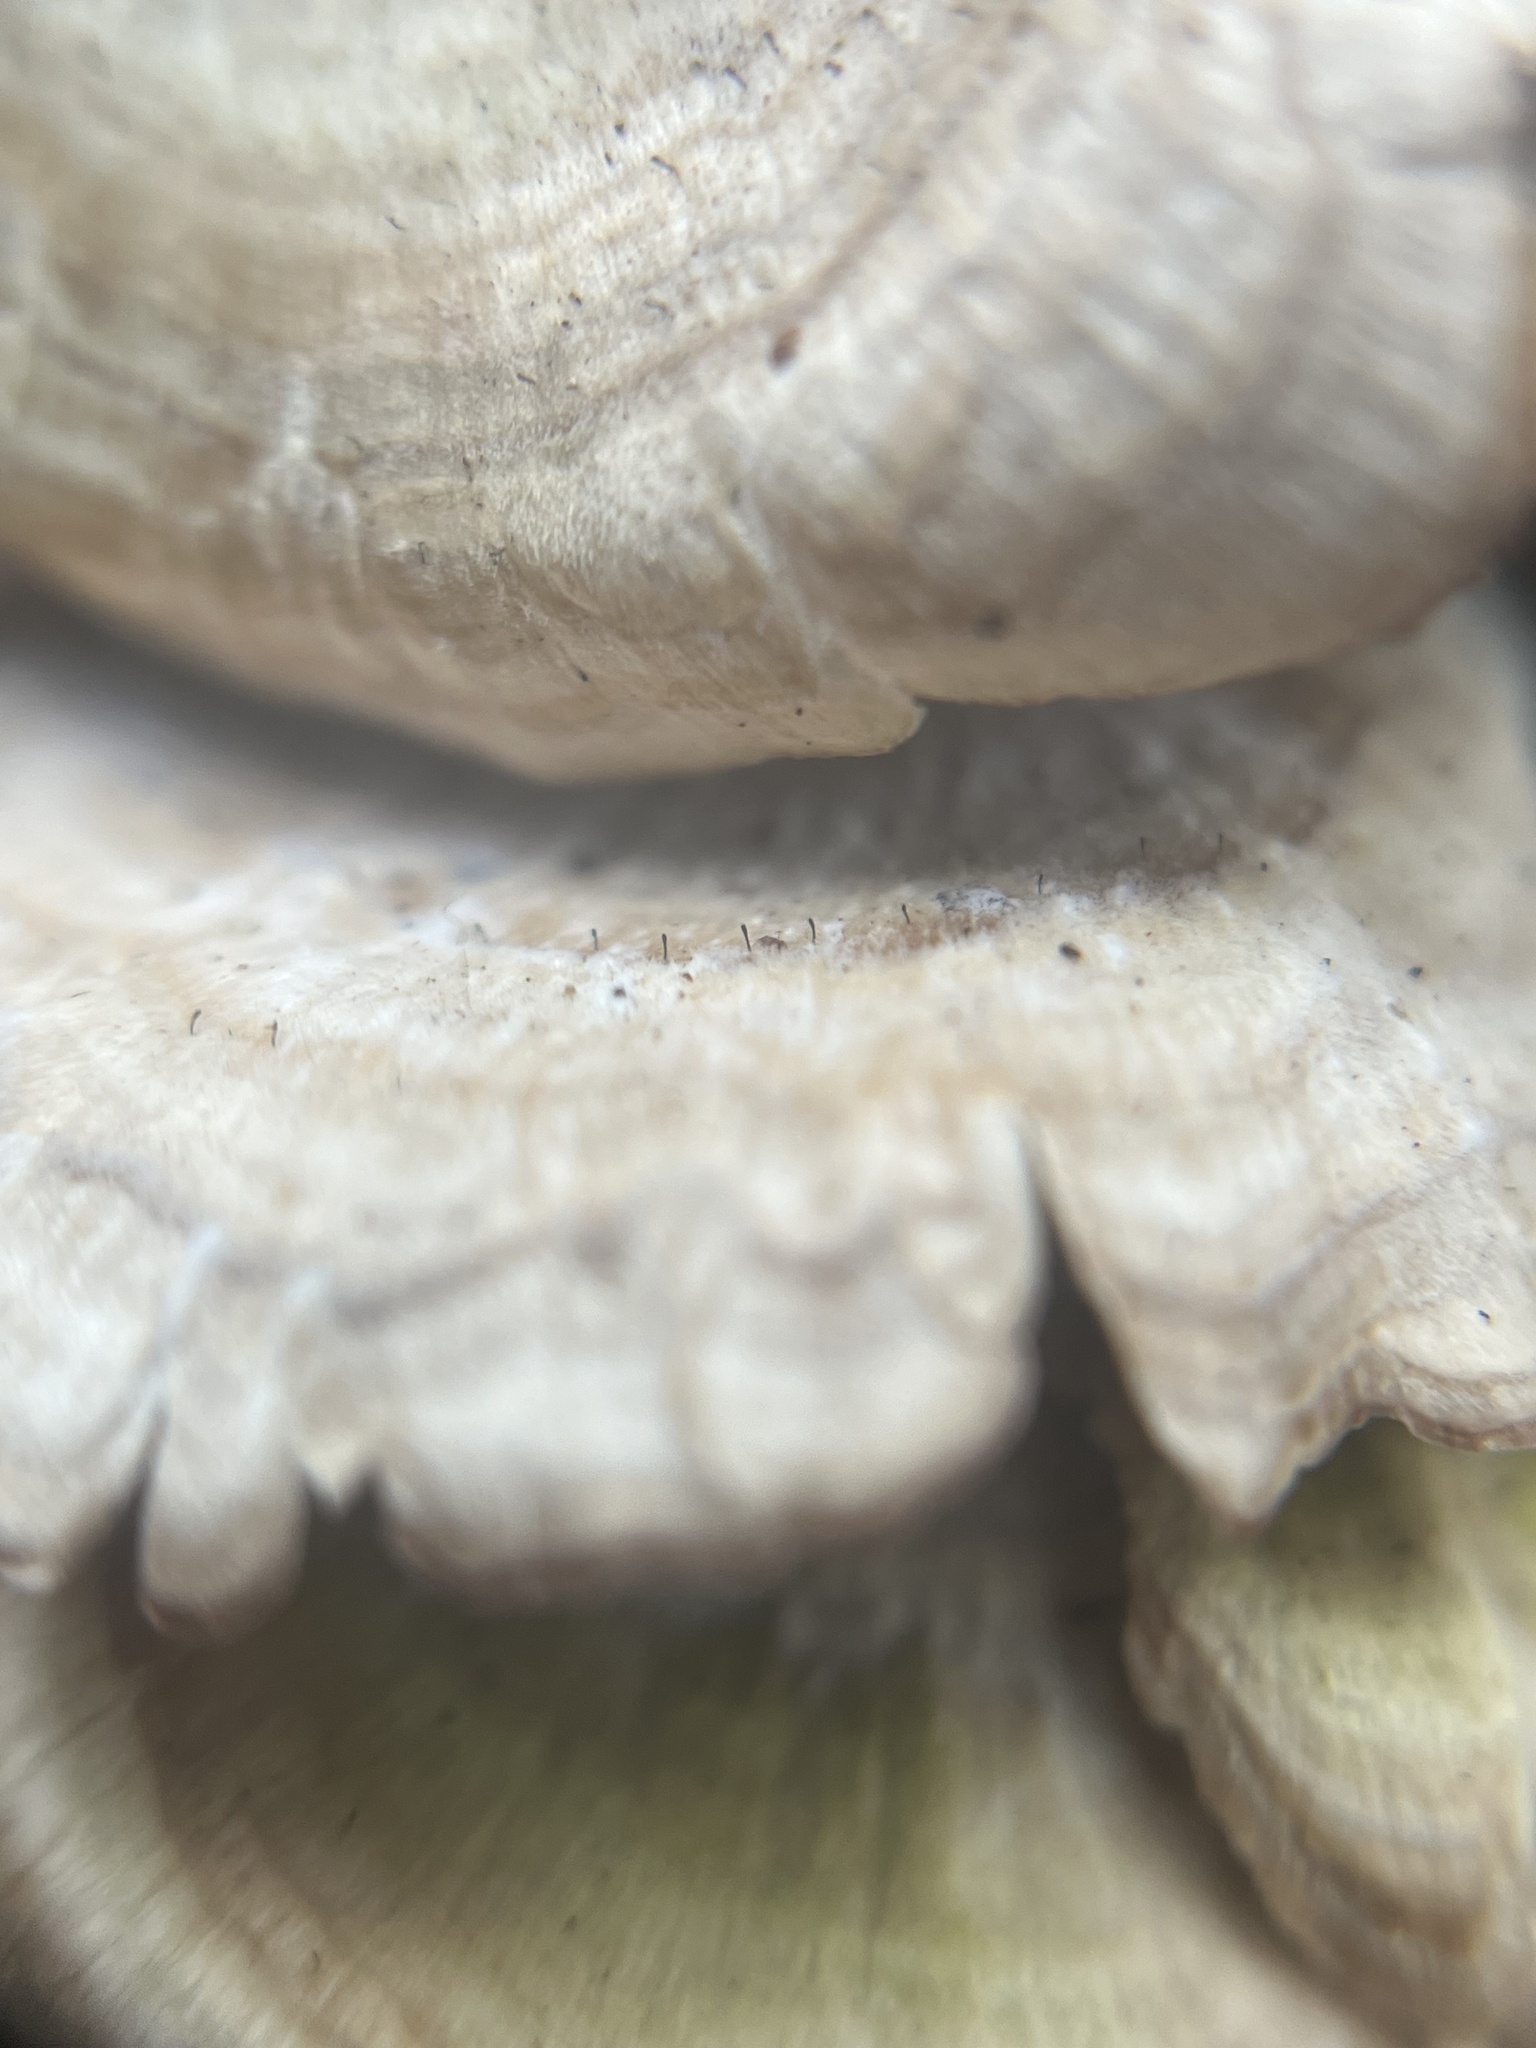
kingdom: Fungi
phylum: Ascomycota
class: Eurotiomycetes
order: Mycocaliciales
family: Mycocaliciaceae
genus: Phaeocalicium
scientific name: Phaeocalicium polyporaeum
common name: Fairy pins
